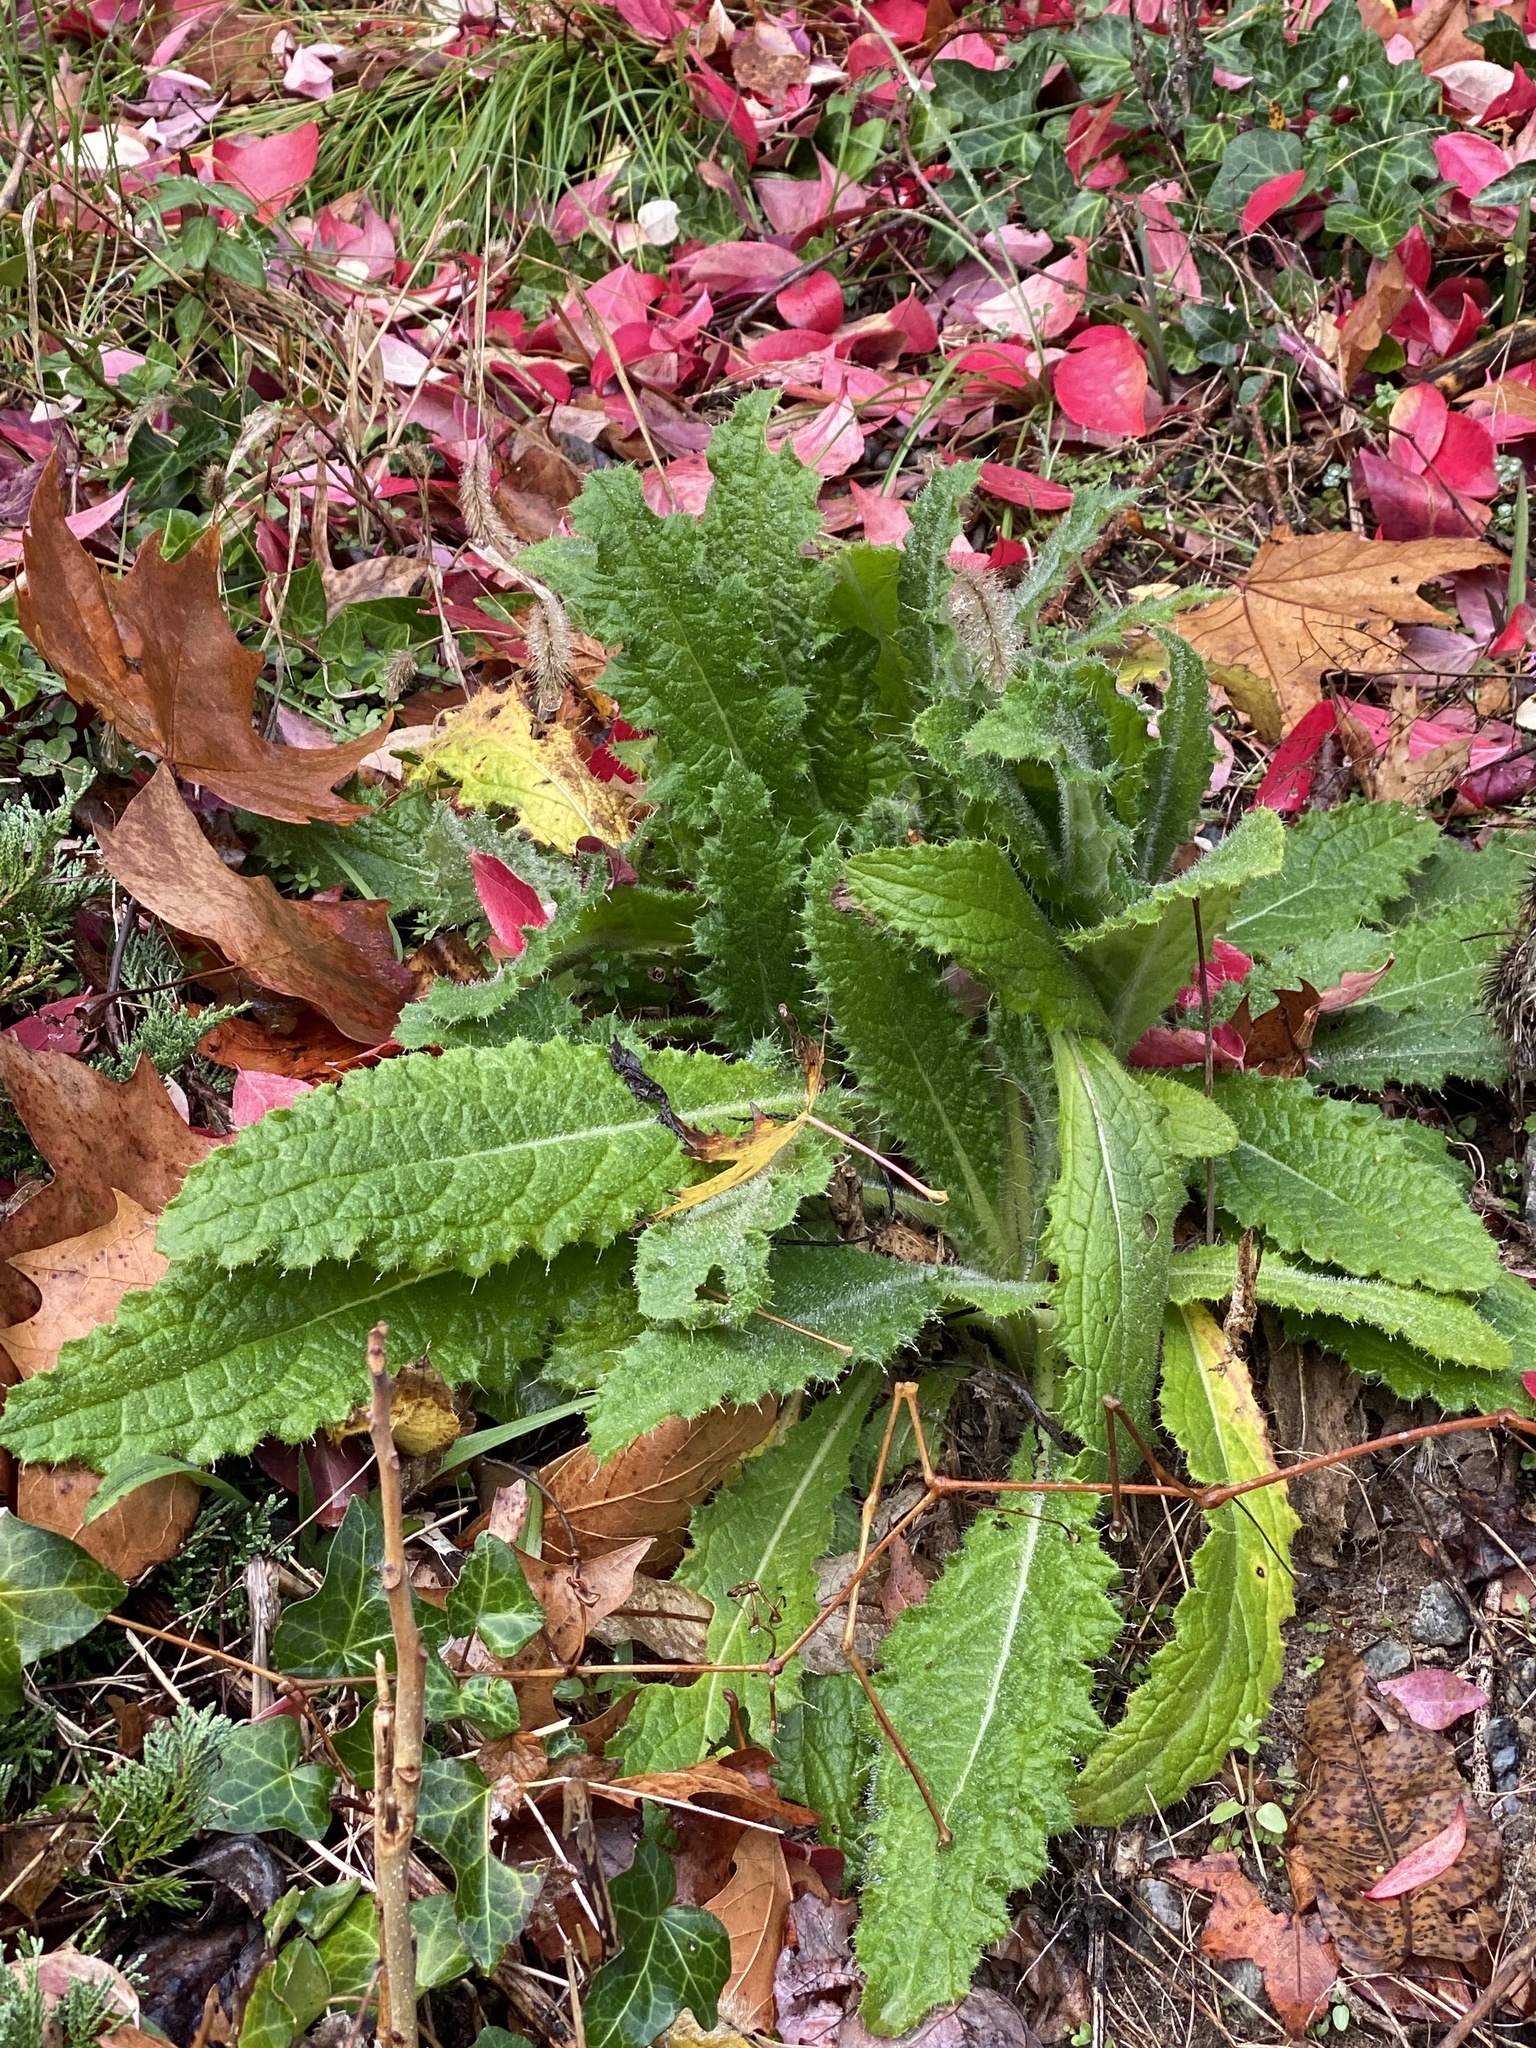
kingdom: Plantae
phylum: Tracheophyta
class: Magnoliopsida
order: Asterales
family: Asteraceae
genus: Cirsium
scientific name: Cirsium vulgare
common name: Bull thistle
